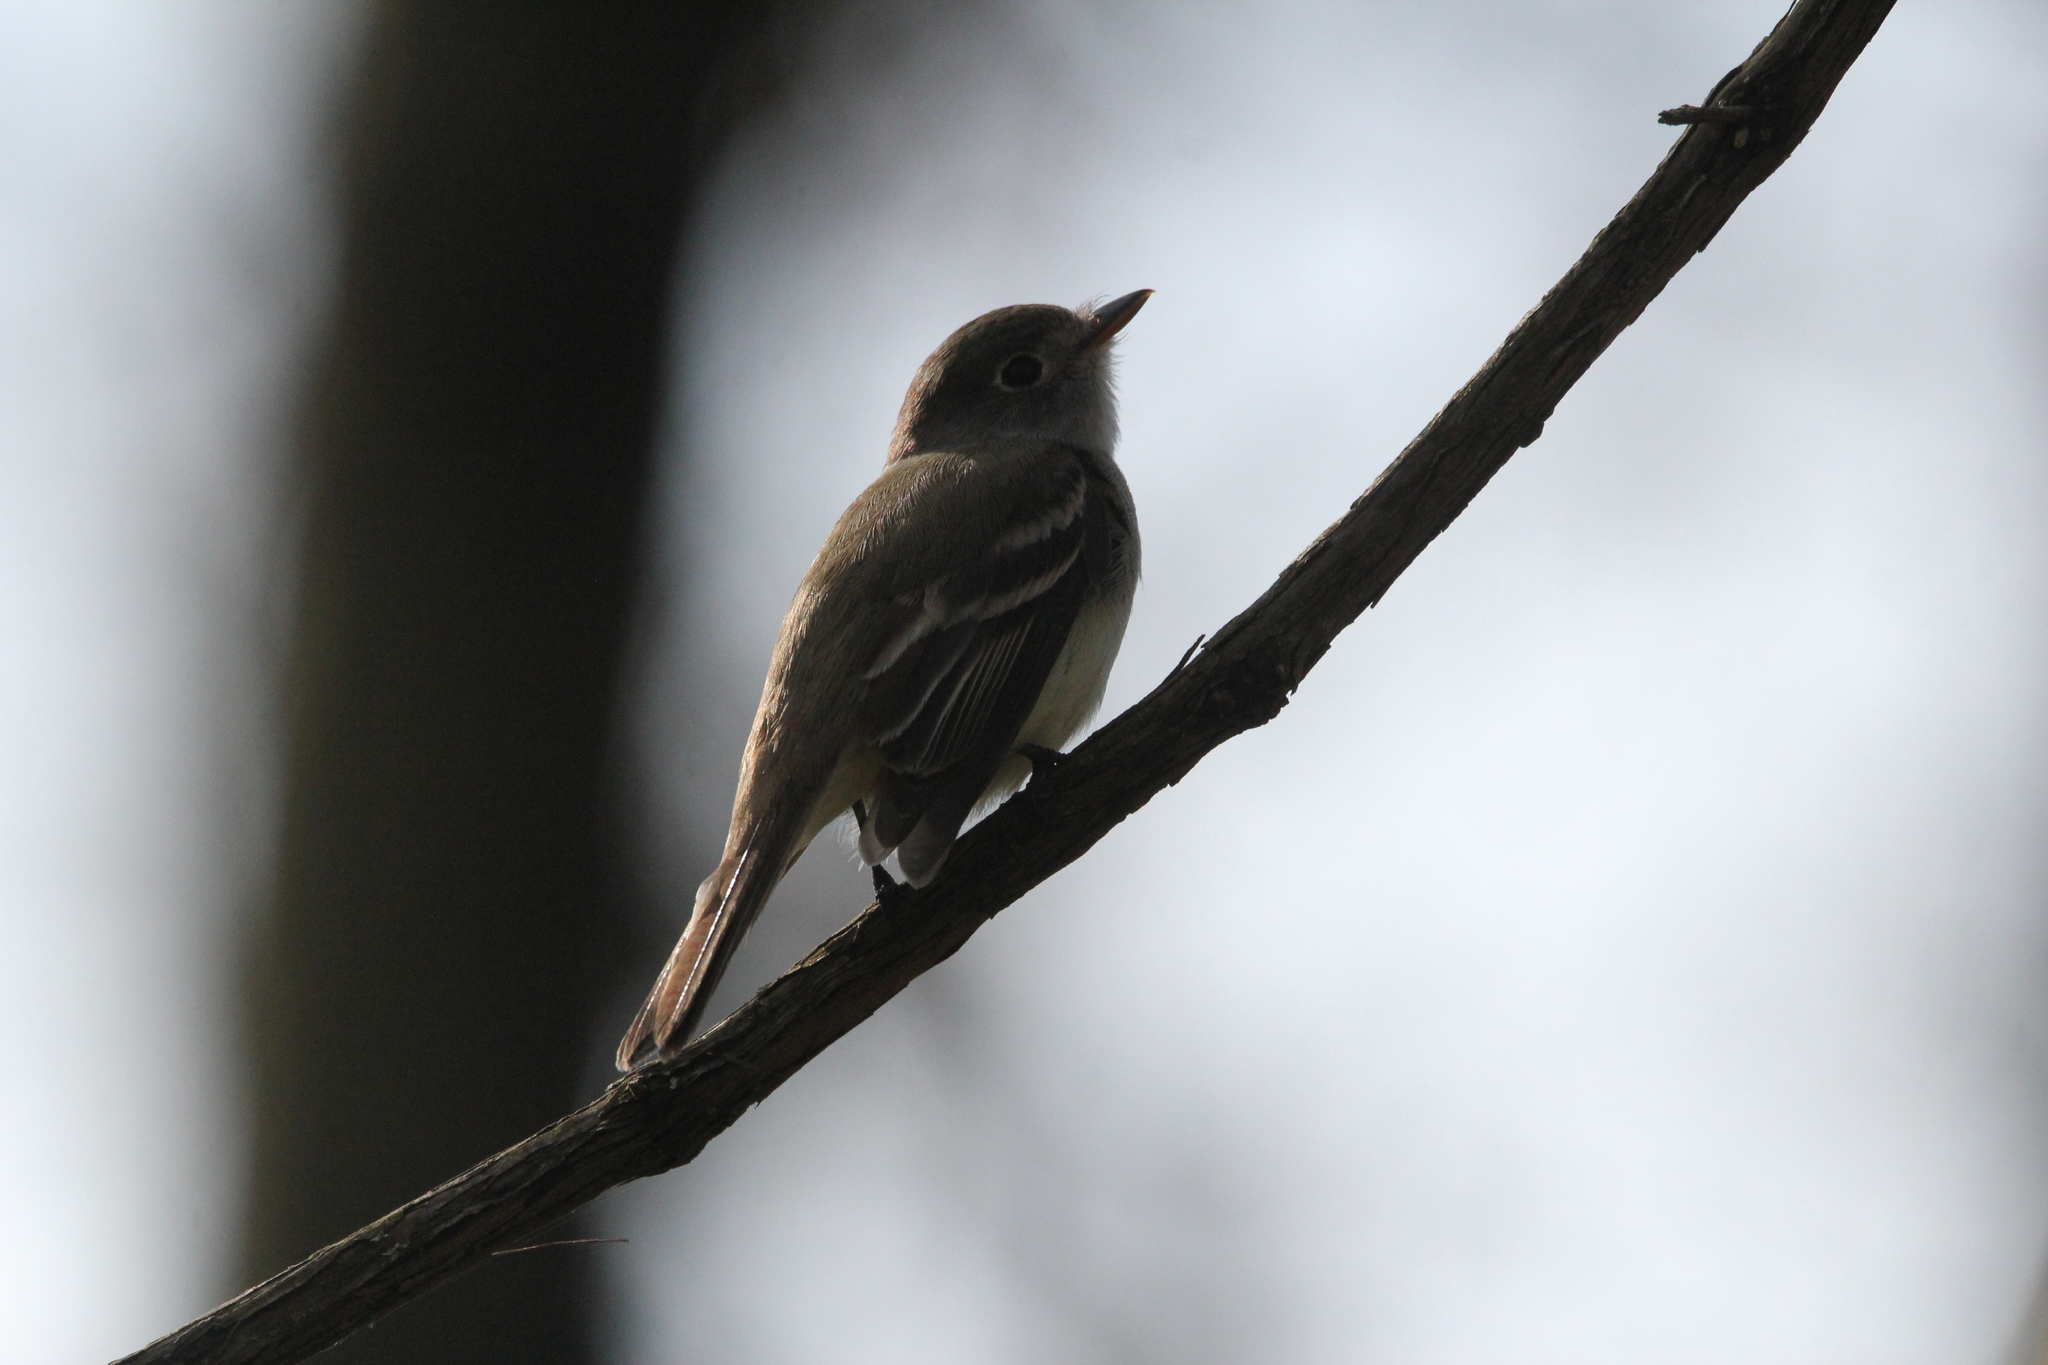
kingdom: Animalia
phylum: Chordata
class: Aves
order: Passeriformes
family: Tyrannidae
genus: Empidonax
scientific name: Empidonax minimus
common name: Least flycatcher
